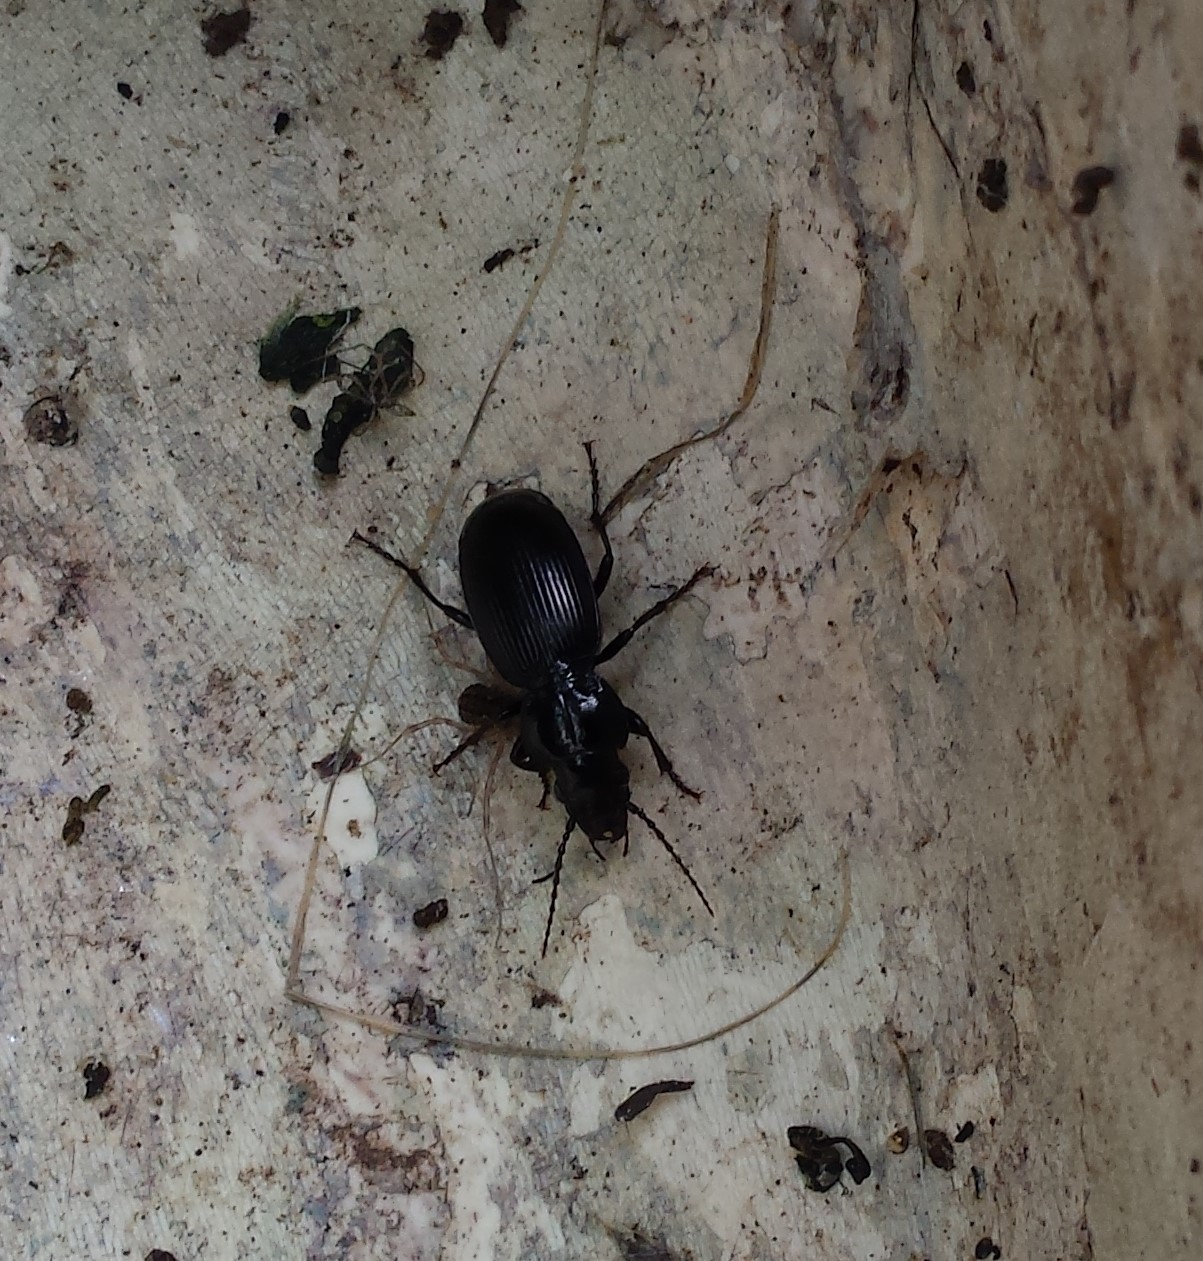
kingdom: Animalia
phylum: Arthropoda
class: Insecta
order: Coleoptera
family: Carabidae
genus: Pterostichus
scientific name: Pterostichus madidus
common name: Black clock
